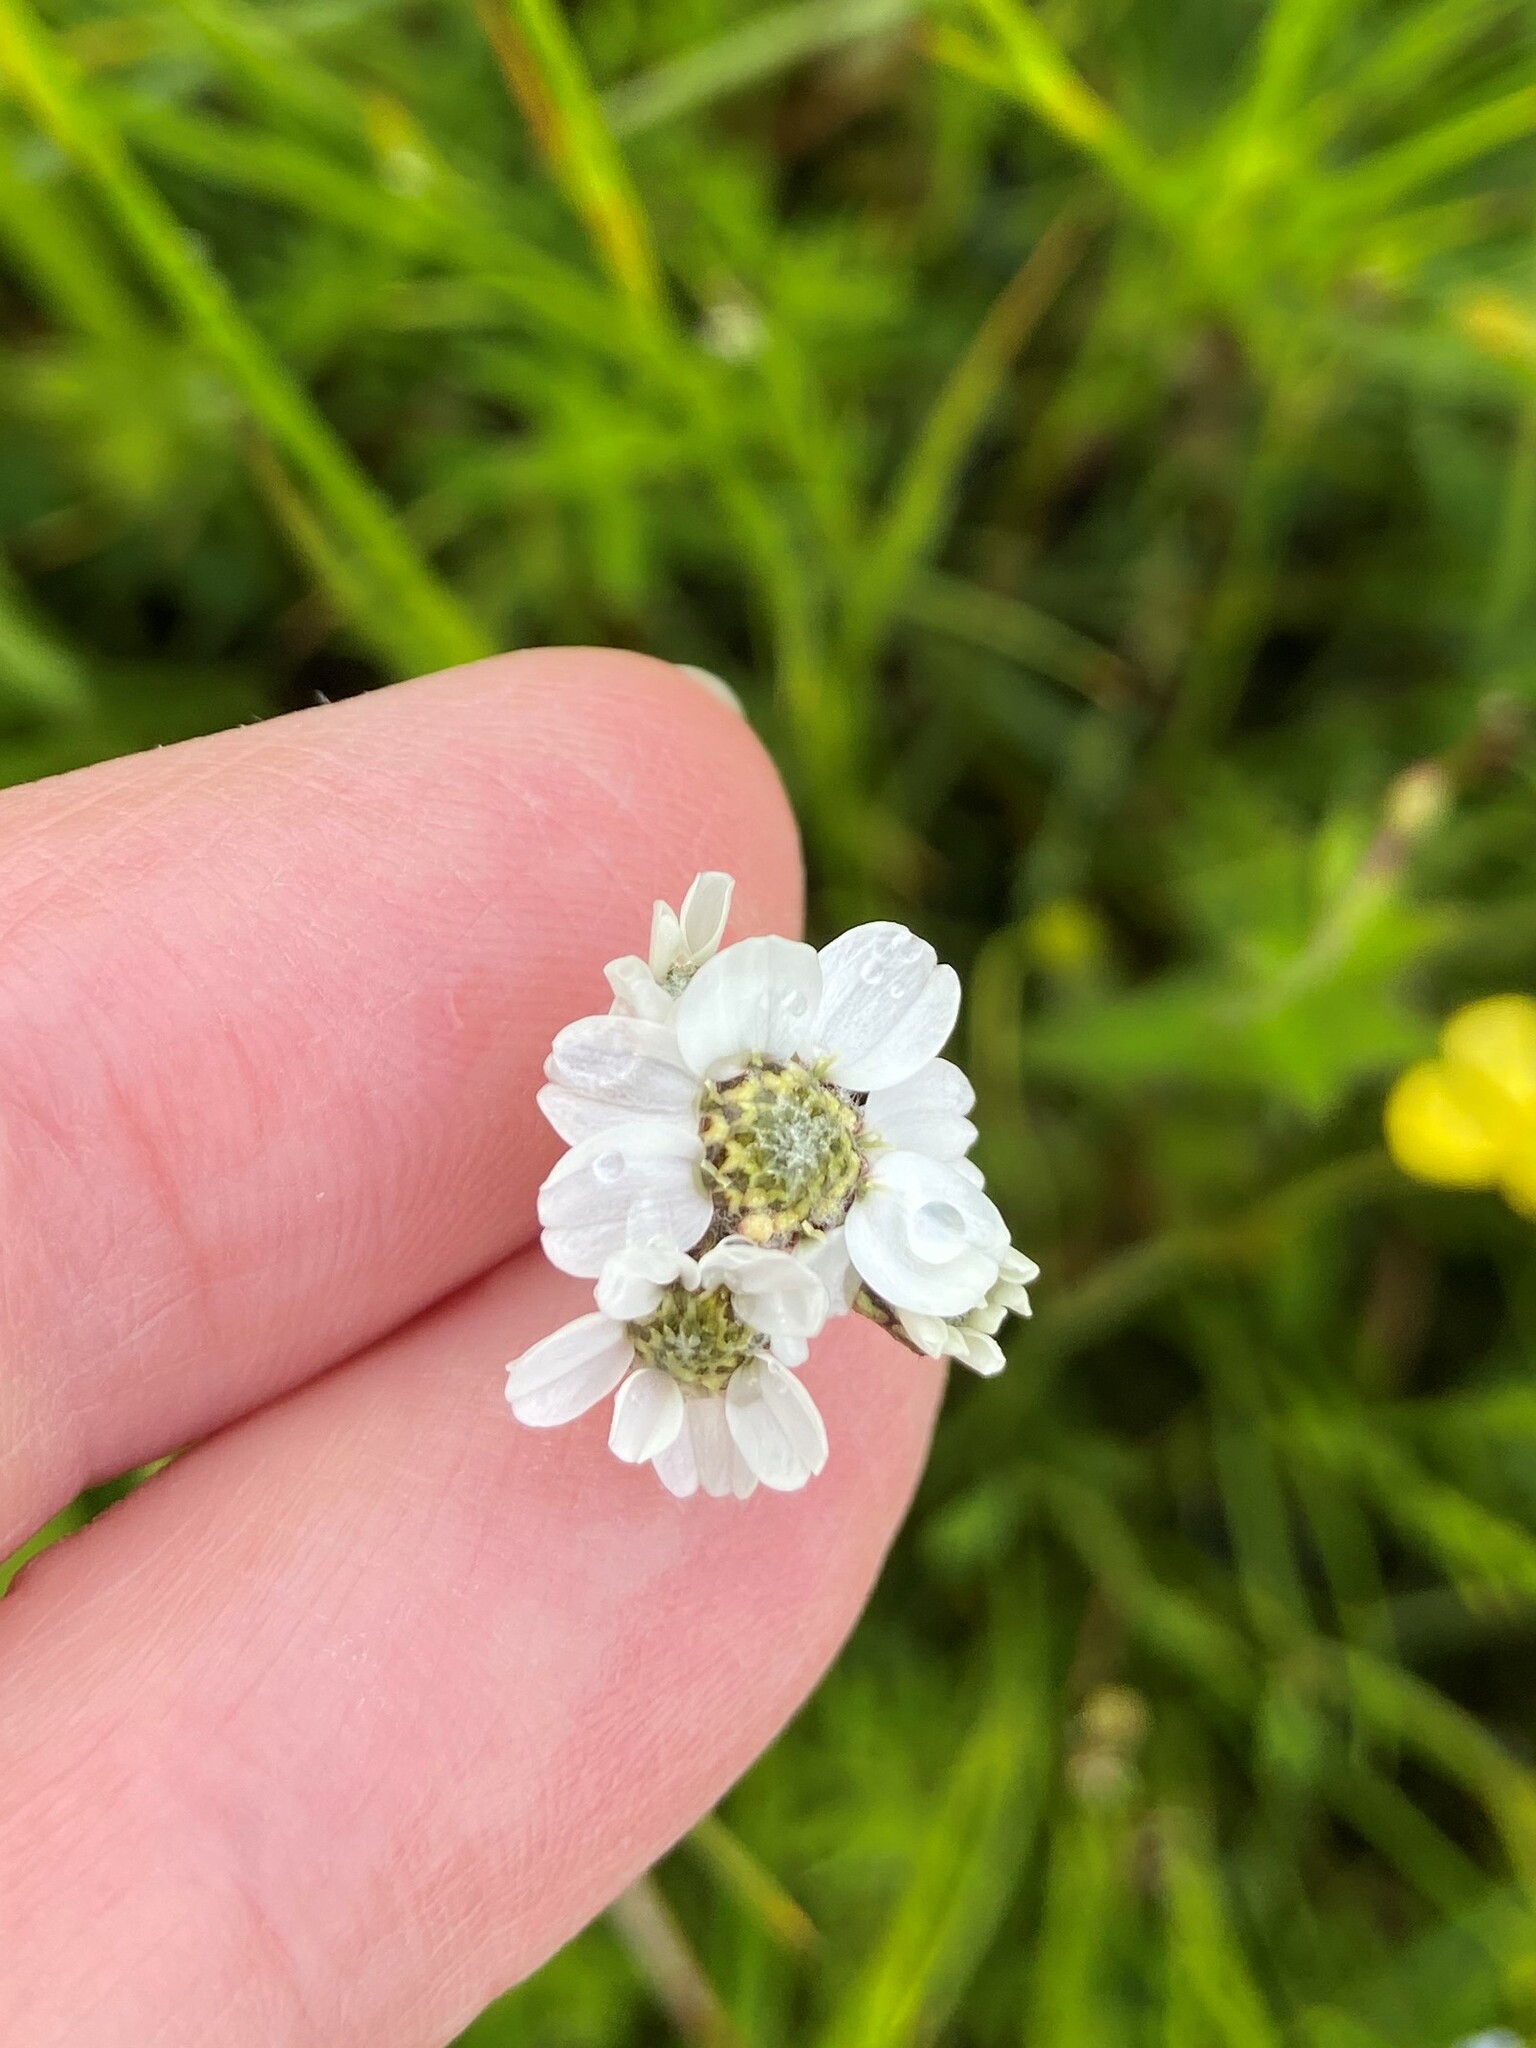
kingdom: Plantae
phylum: Tracheophyta
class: Magnoliopsida
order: Asterales
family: Asteraceae
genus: Achillea
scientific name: Achillea ptarmica
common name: Sneezeweed
